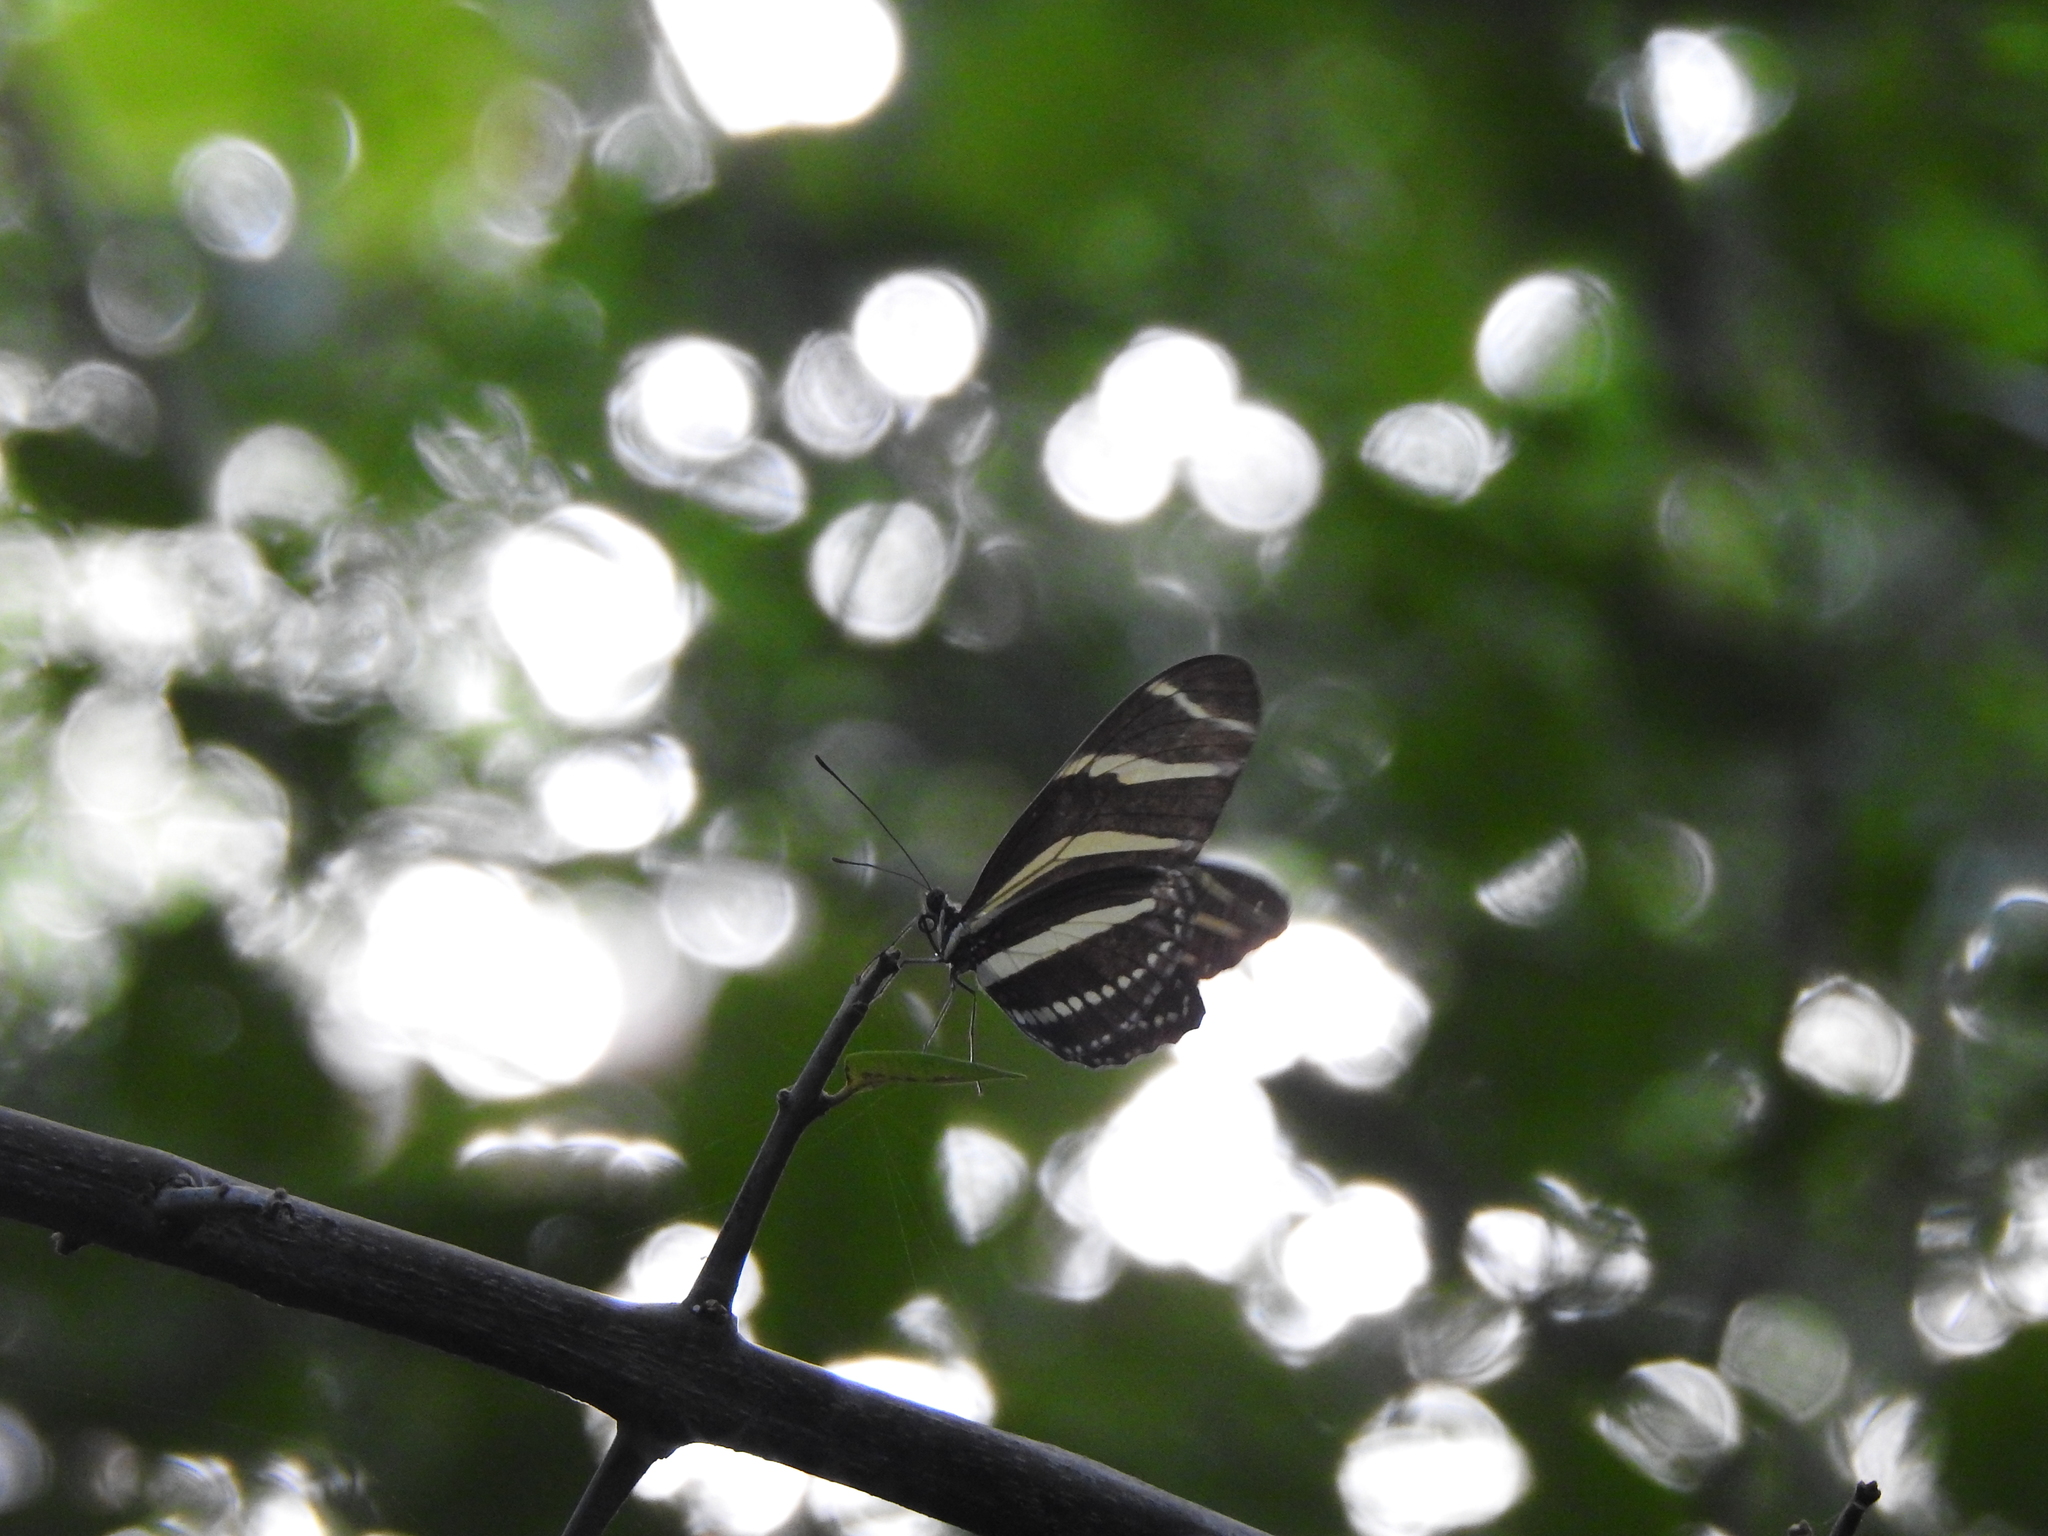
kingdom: Animalia
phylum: Arthropoda
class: Insecta
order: Lepidoptera
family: Nymphalidae
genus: Heliconius
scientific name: Heliconius charithonia
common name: Zebra long wing
